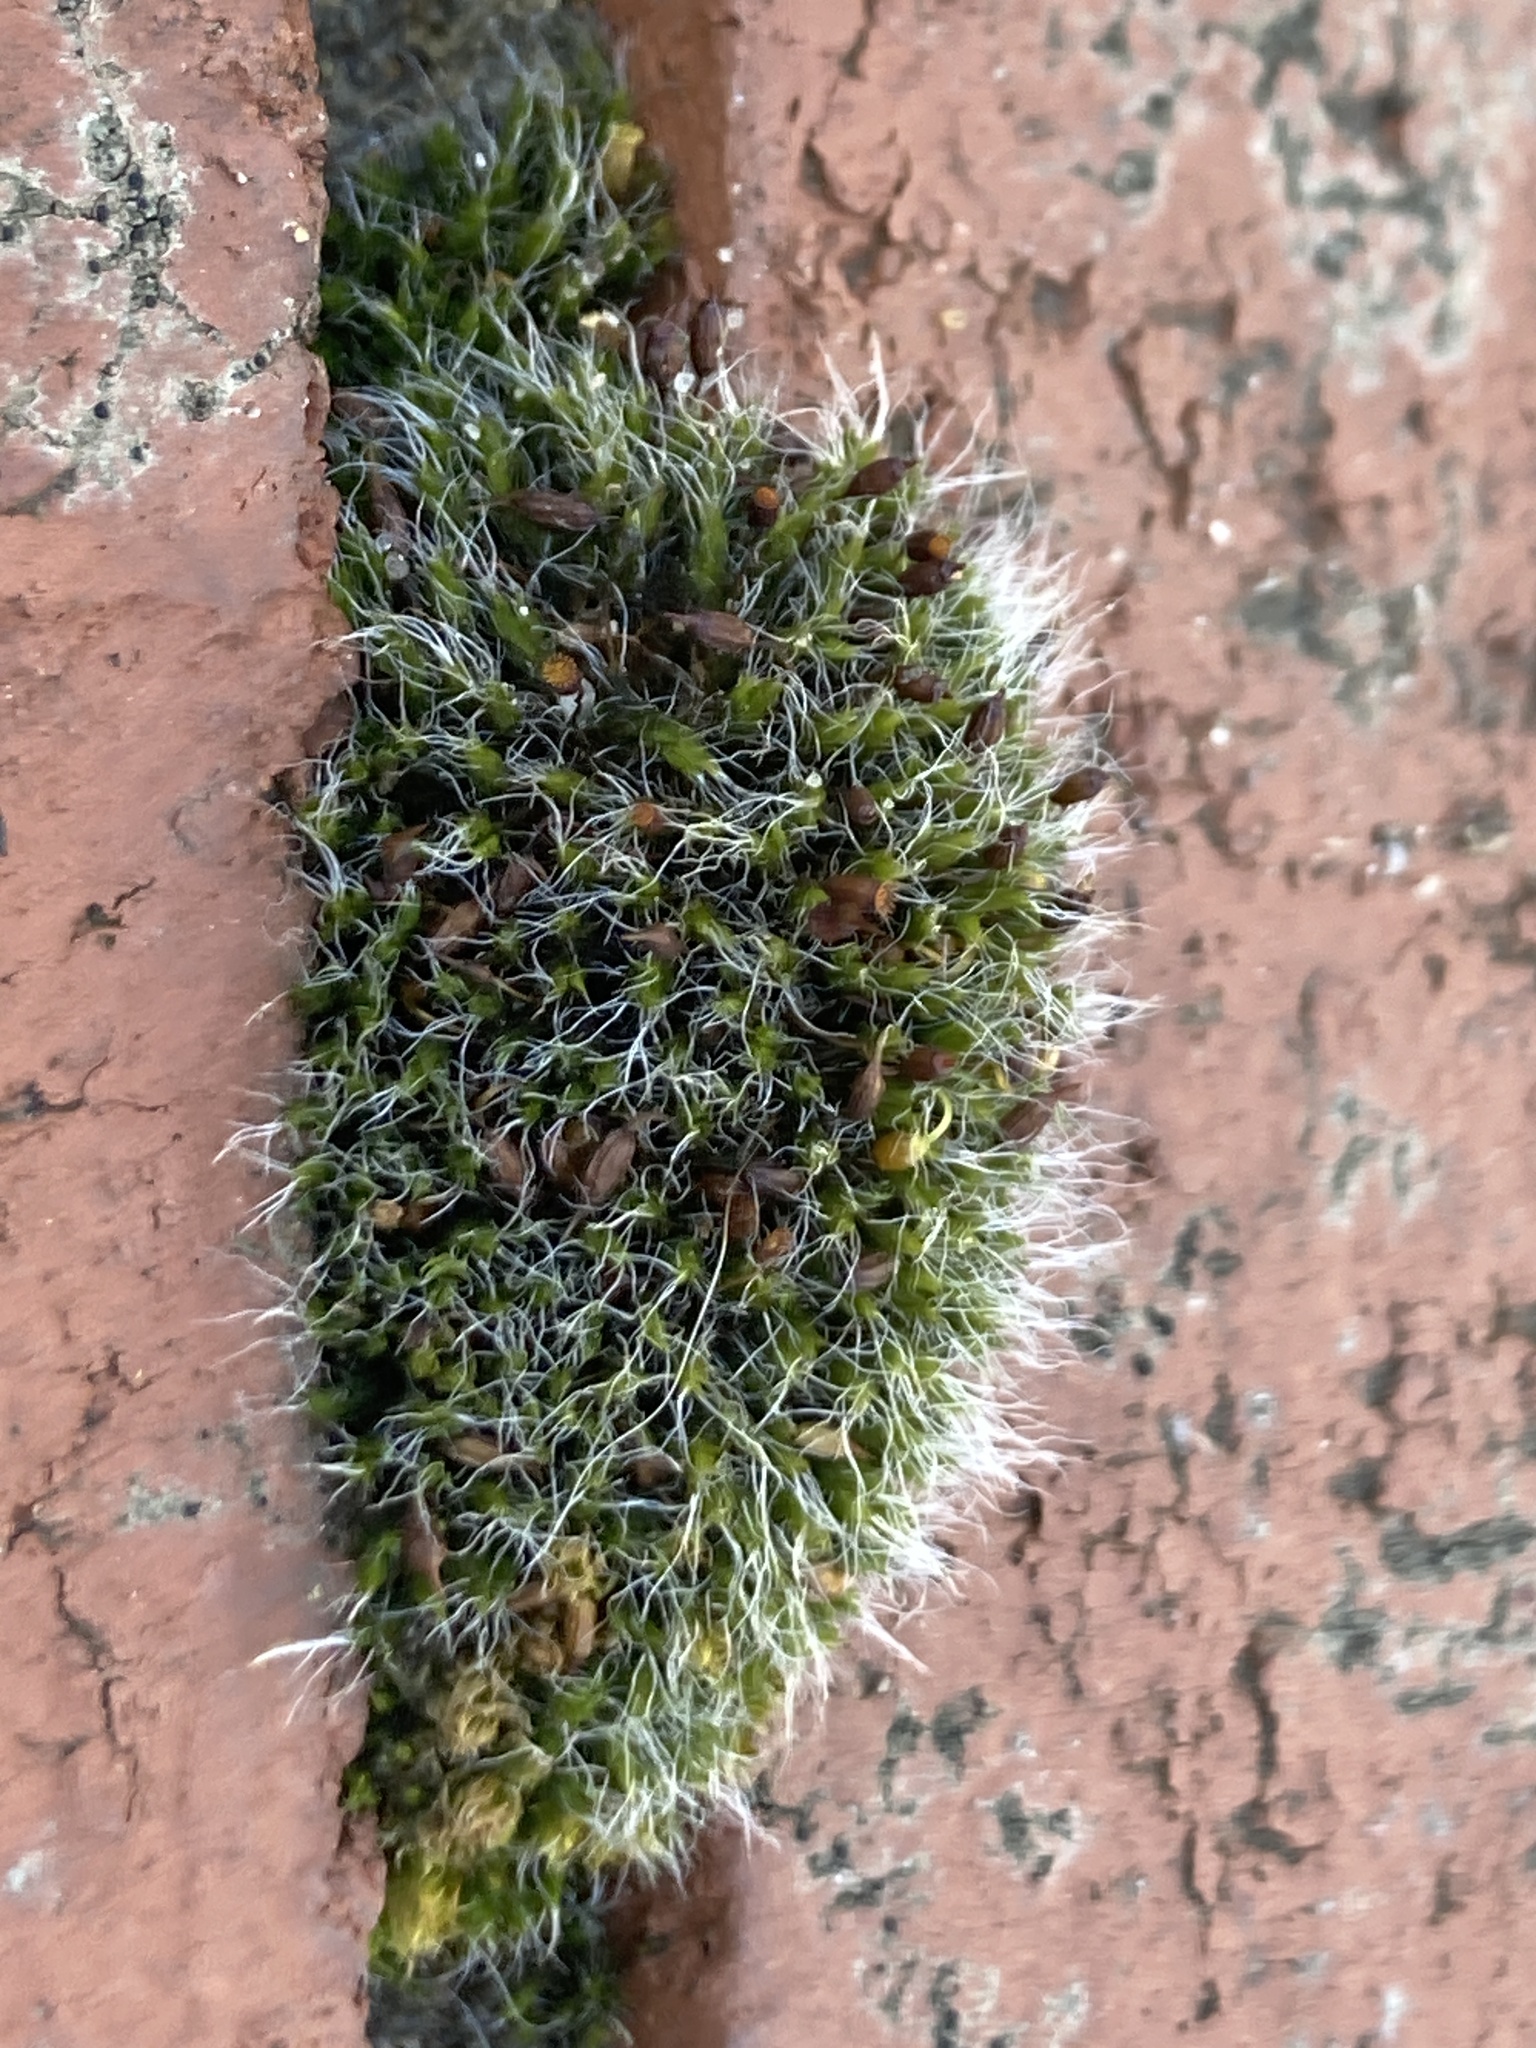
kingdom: Plantae
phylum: Bryophyta
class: Bryopsida
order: Grimmiales
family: Grimmiaceae
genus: Grimmia
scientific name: Grimmia pulvinata
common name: Grey-cushioned grimmia
